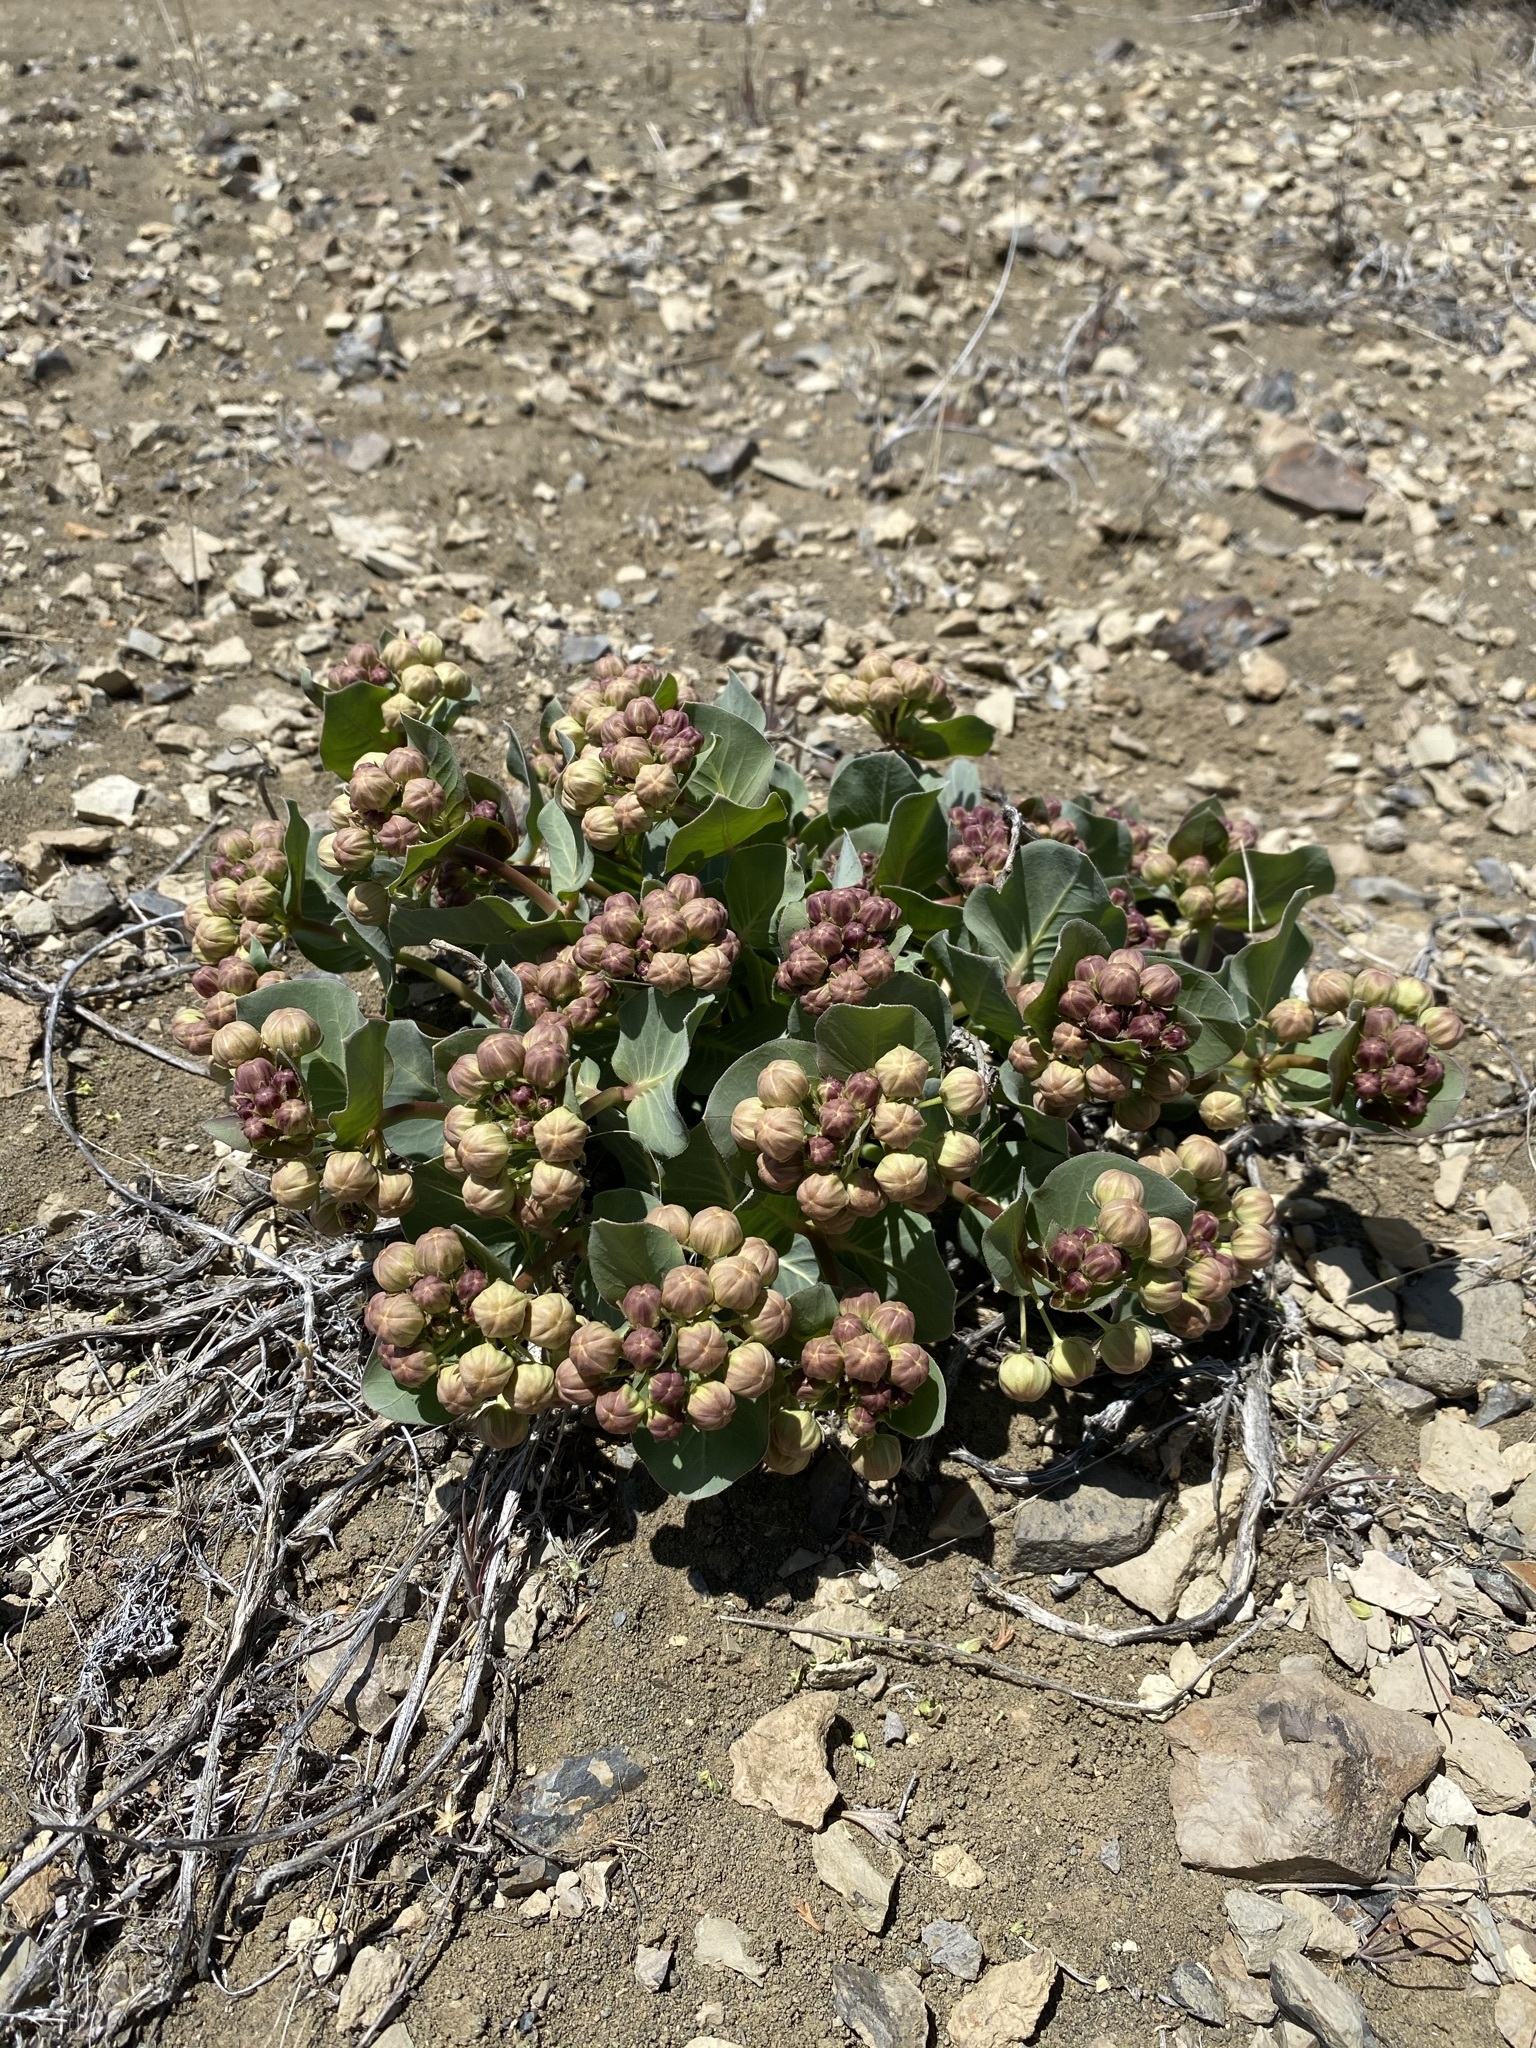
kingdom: Plantae
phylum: Tracheophyta
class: Magnoliopsida
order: Gentianales
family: Apocynaceae
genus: Asclepias
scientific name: Asclepias cryptoceras
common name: Humboldt mountains milkweed
